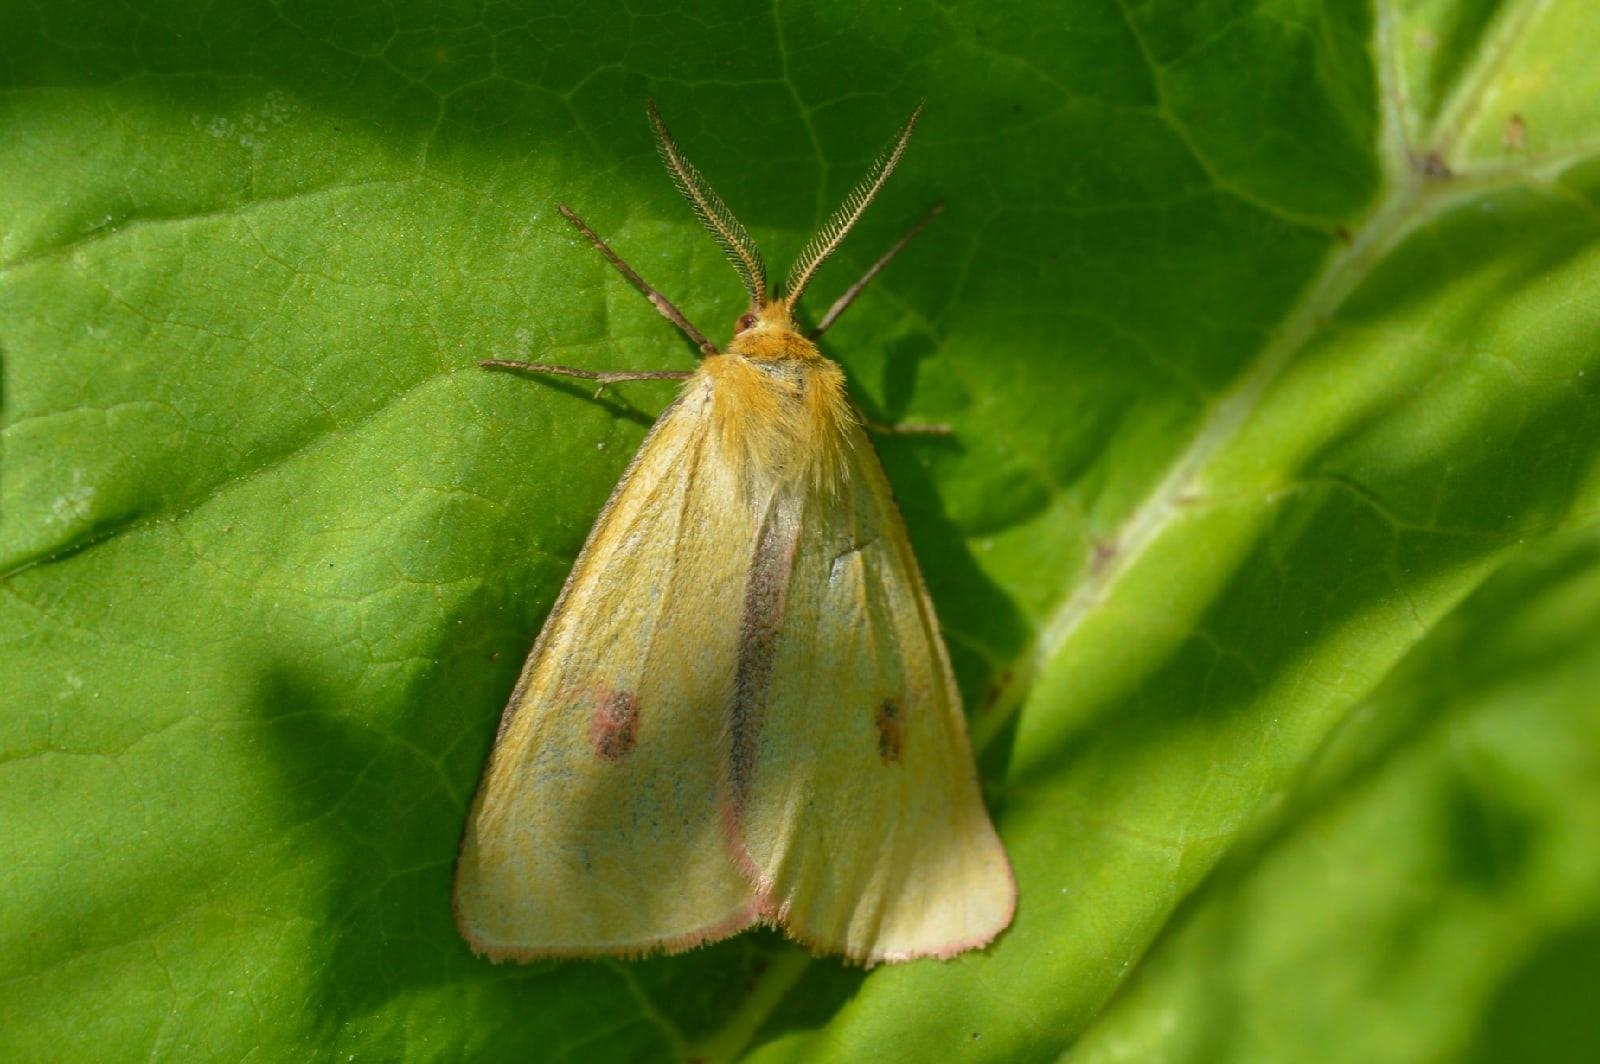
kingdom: Animalia
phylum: Arthropoda
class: Insecta
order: Lepidoptera
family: Erebidae
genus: Diacrisia
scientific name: Diacrisia sannio
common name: Clouded buff
